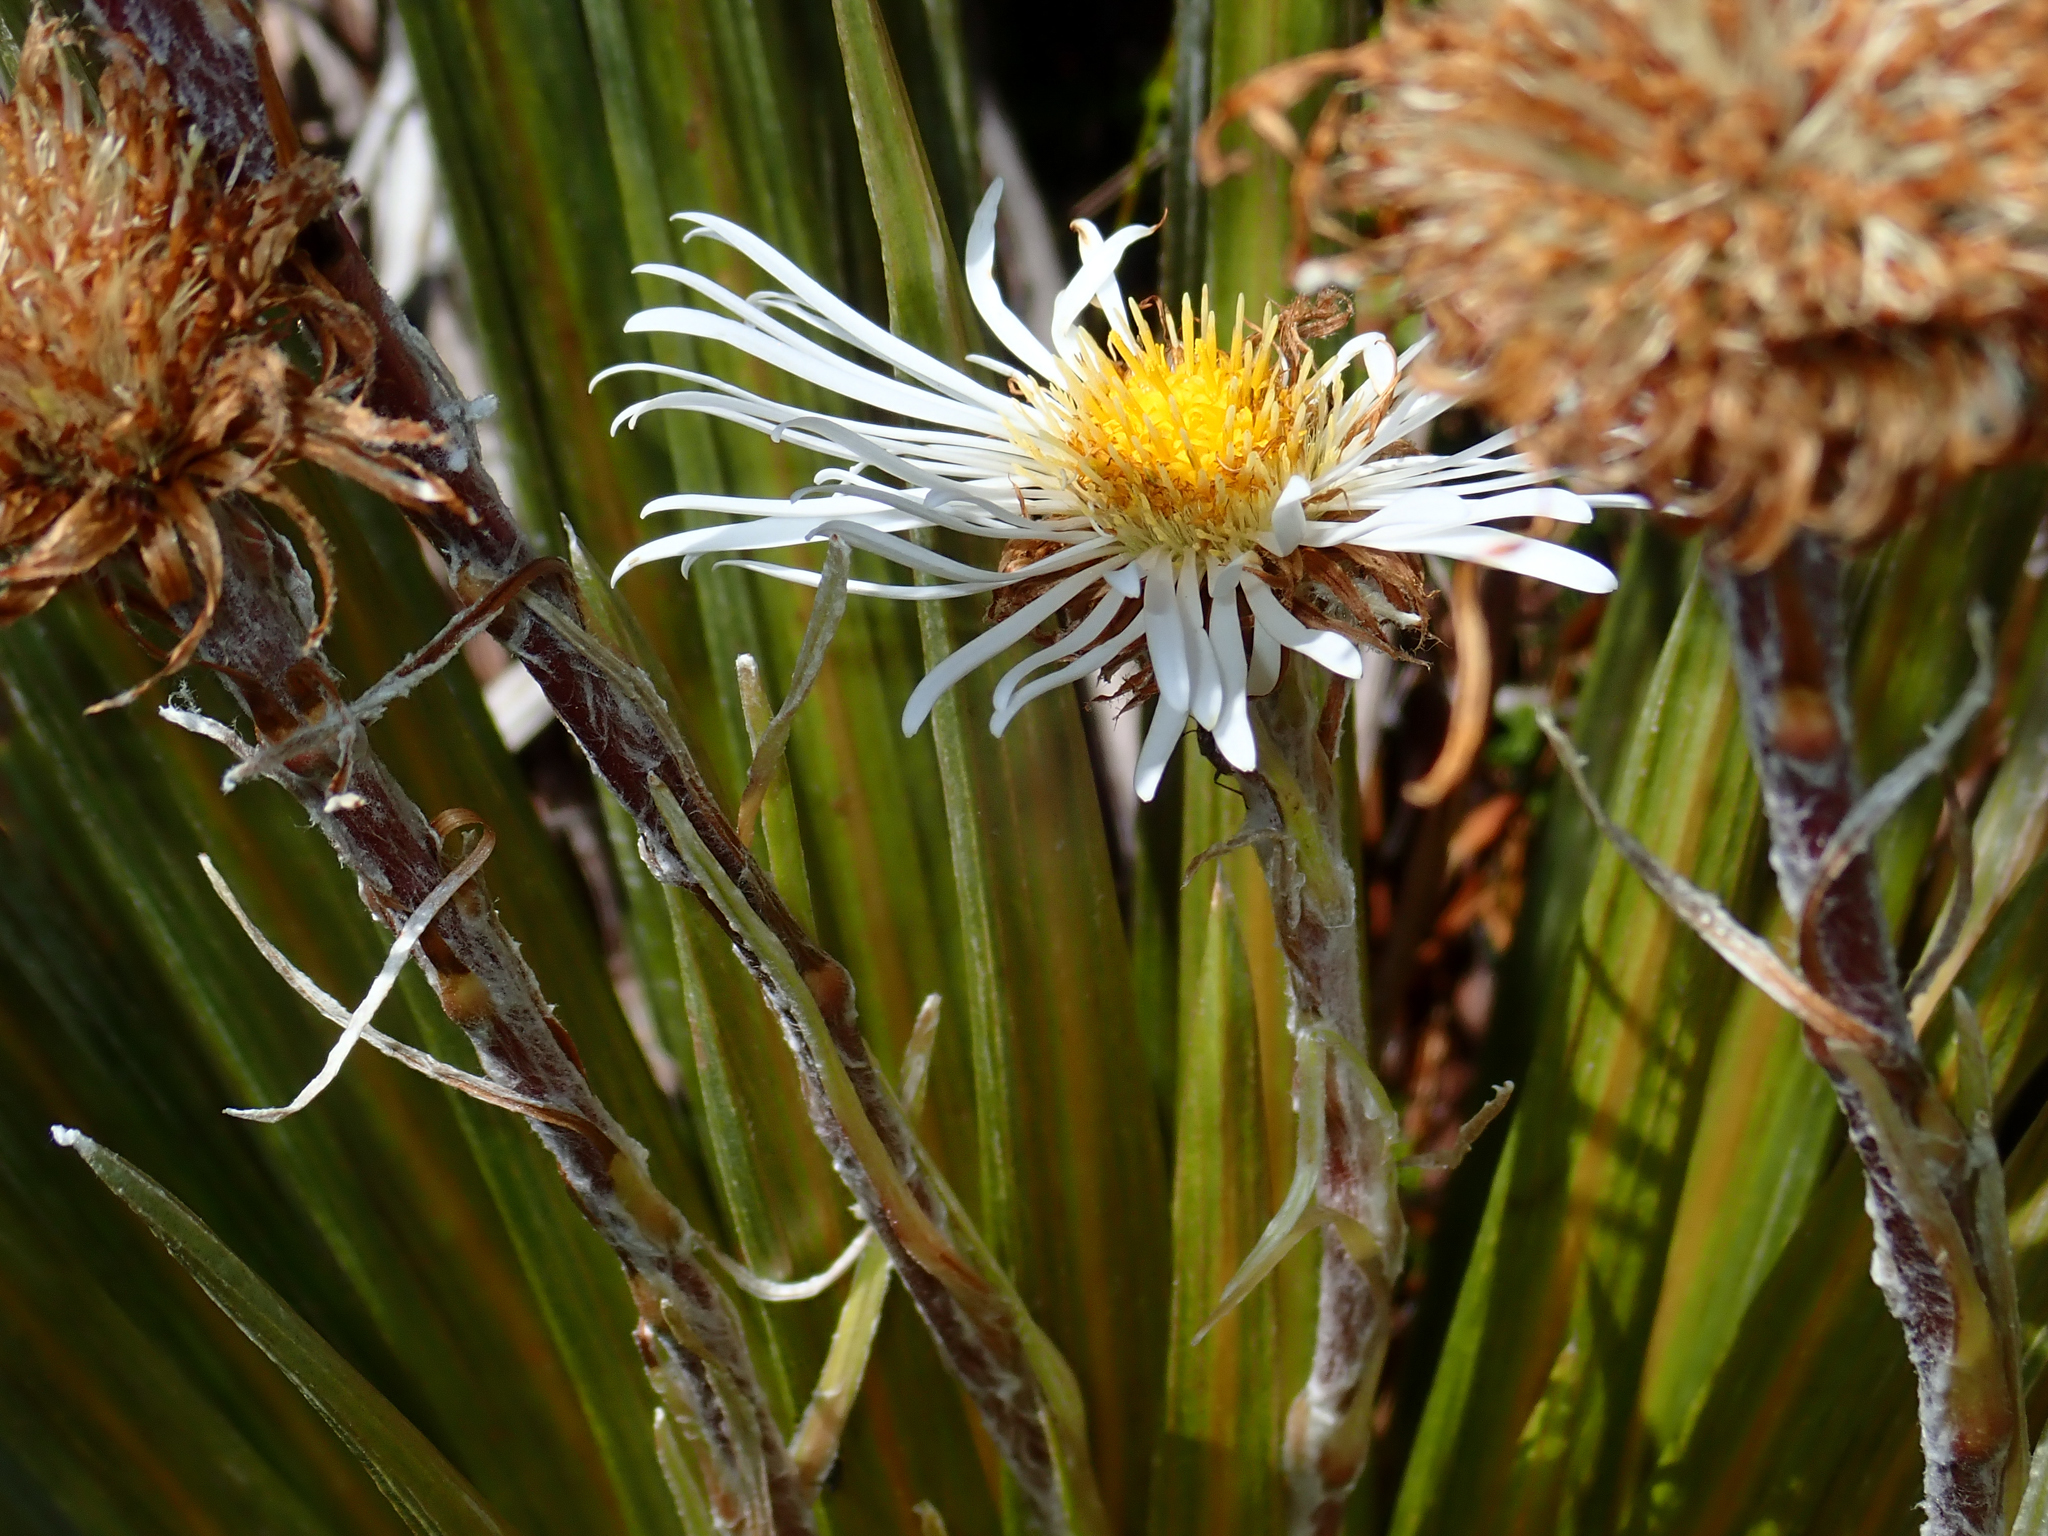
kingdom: Plantae
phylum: Tracheophyta
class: Magnoliopsida
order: Asterales
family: Asteraceae
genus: Celmisia
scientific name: Celmisia armstrongii
